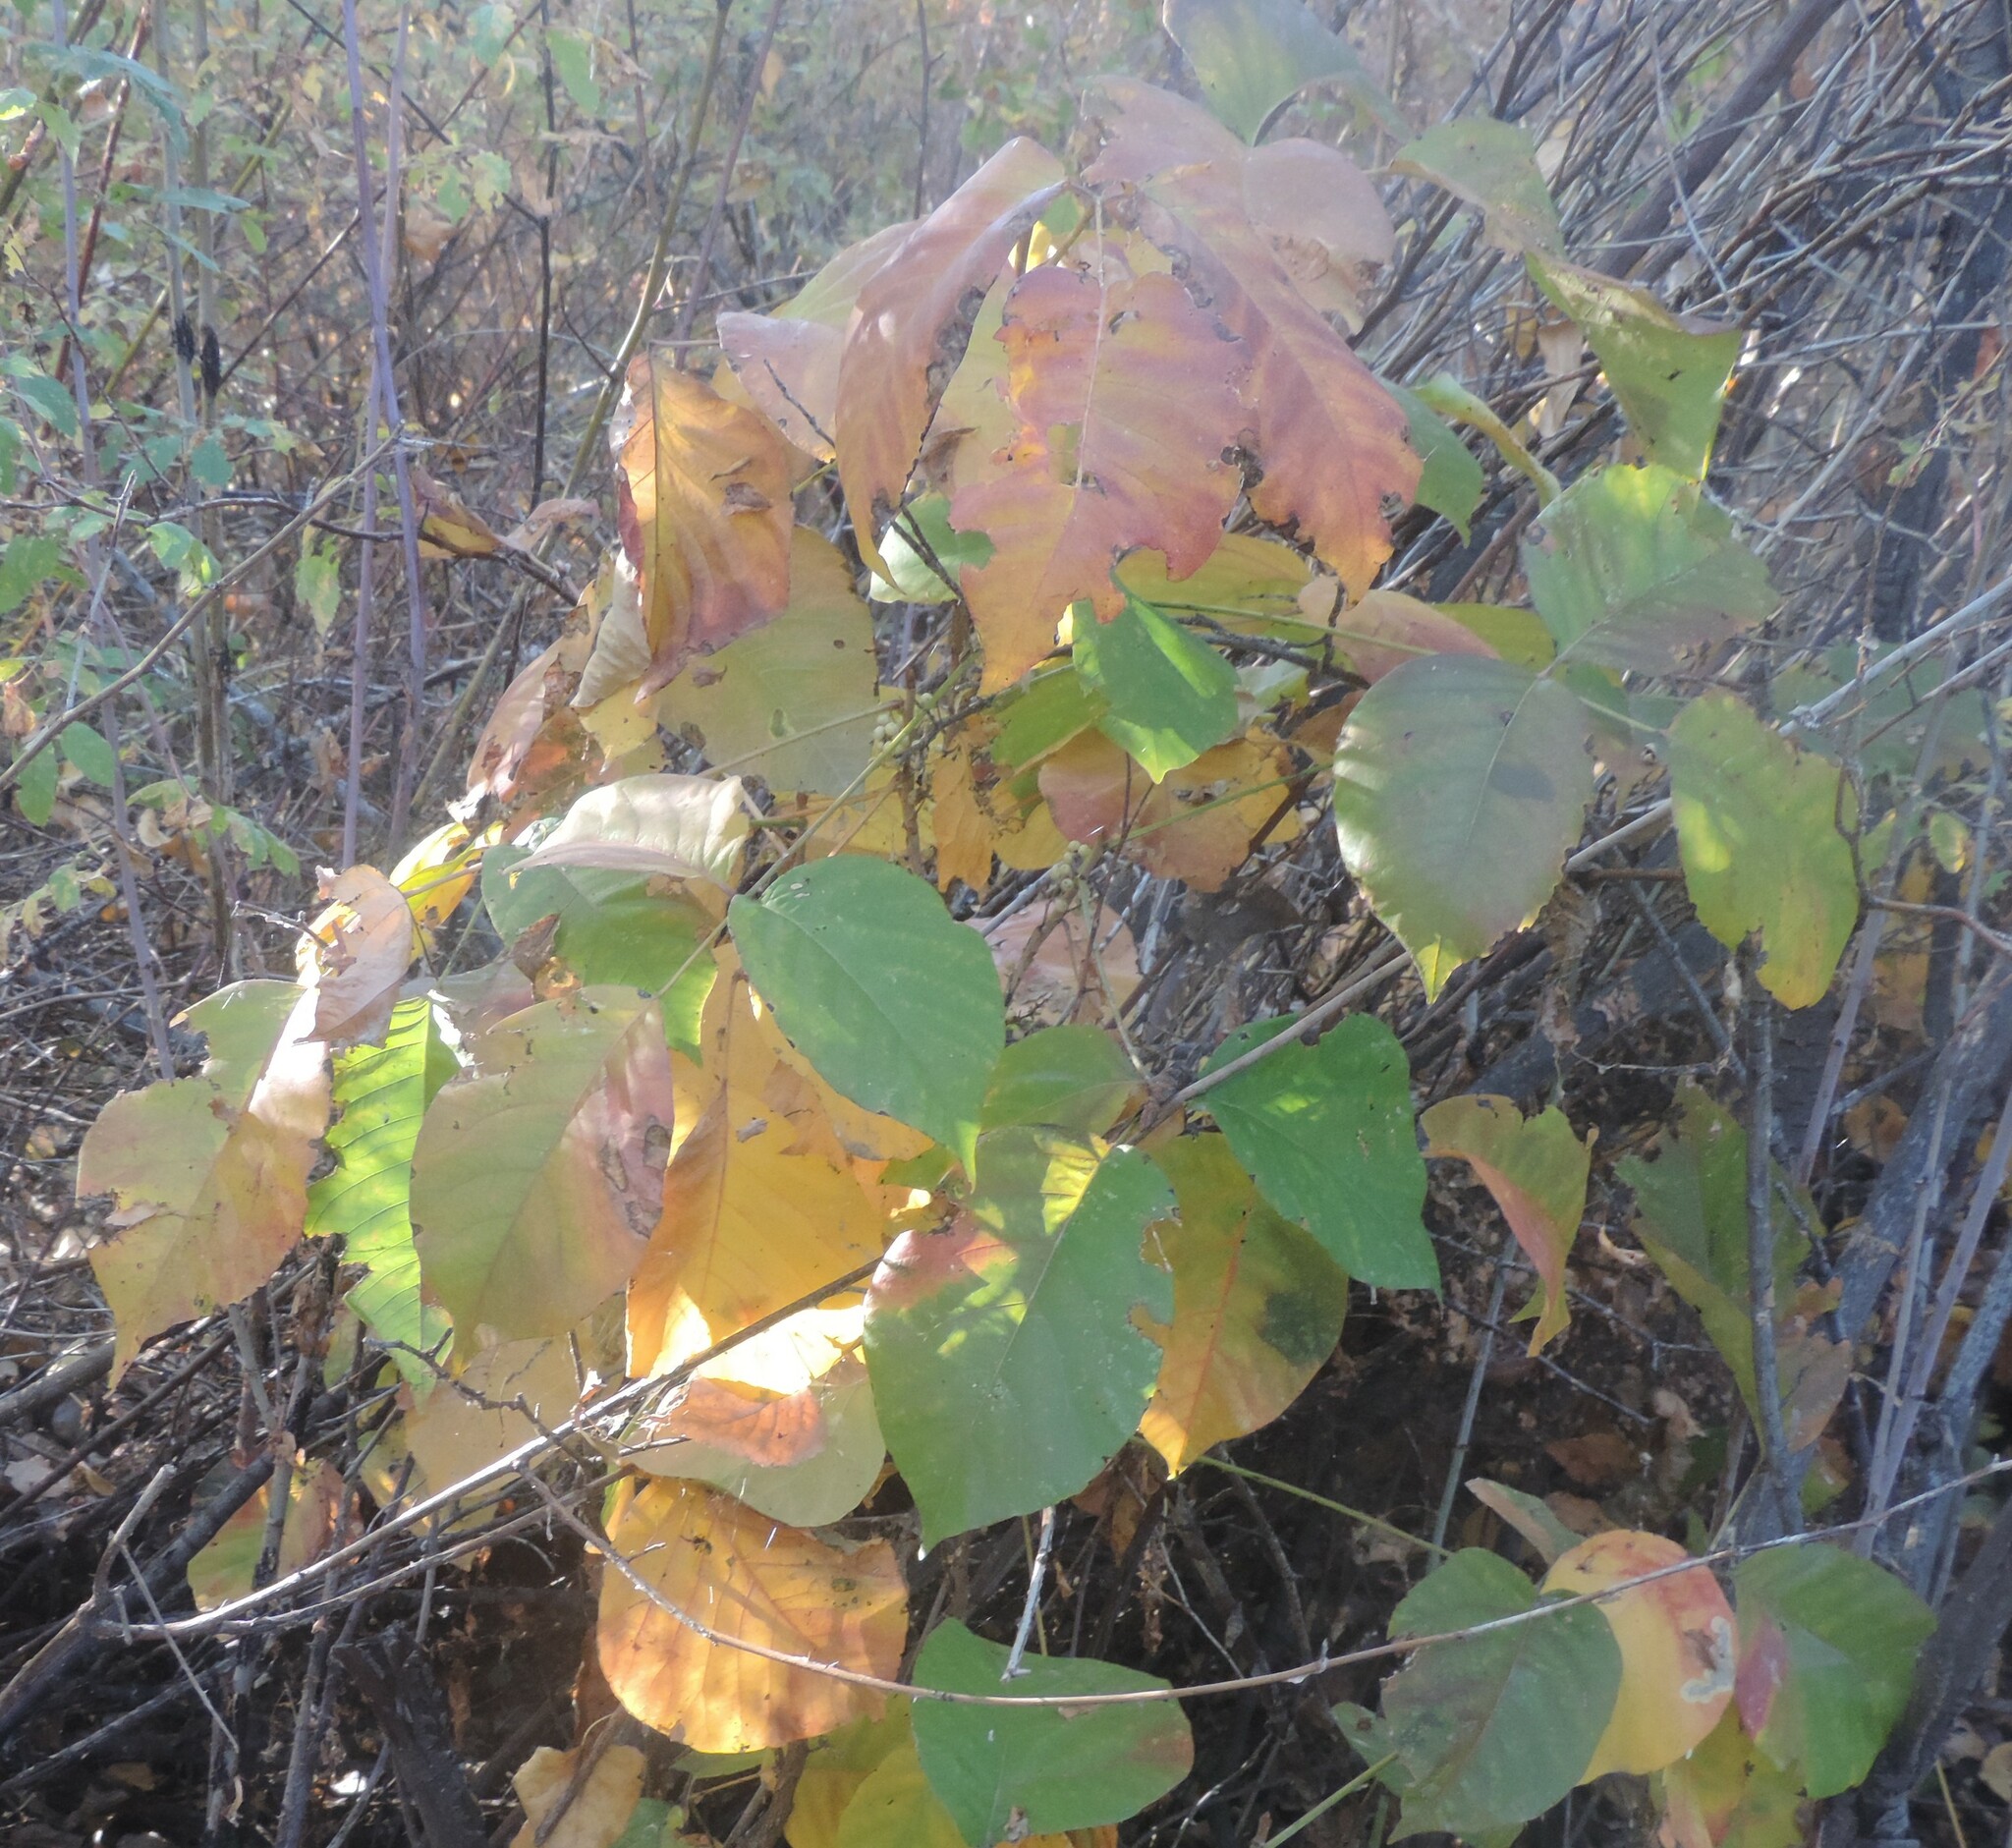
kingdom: Plantae
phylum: Tracheophyta
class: Magnoliopsida
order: Sapindales
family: Anacardiaceae
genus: Toxicodendron
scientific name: Toxicodendron rydbergii
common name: Rydberg's poison-ivy
